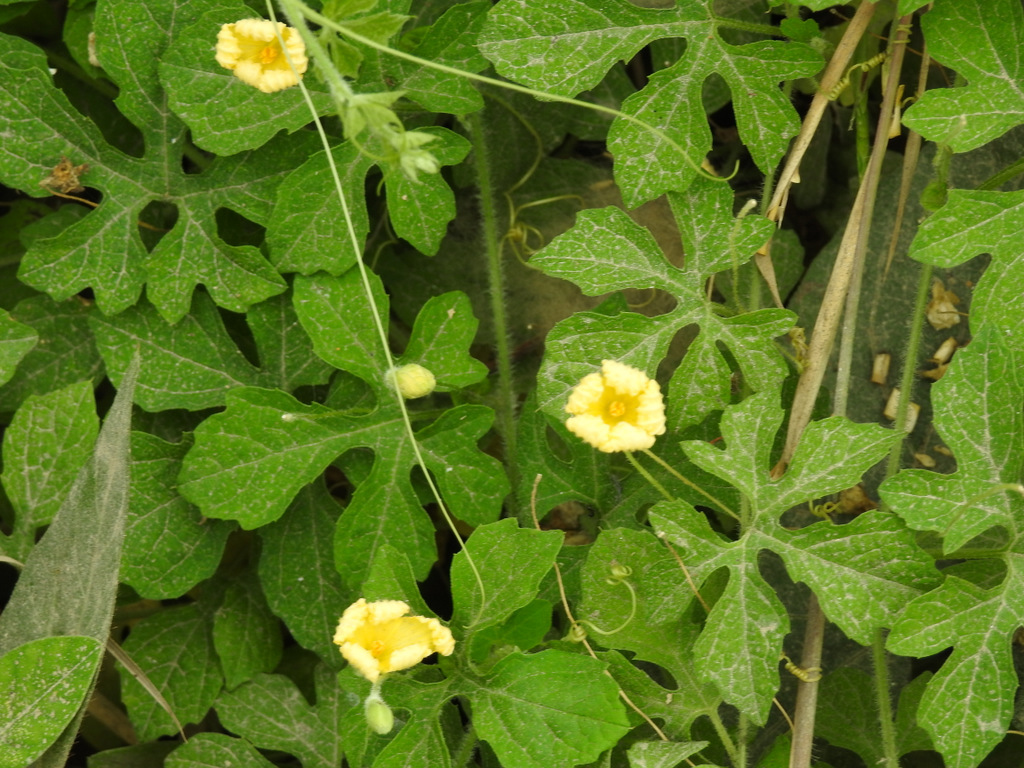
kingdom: Plantae
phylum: Tracheophyta
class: Magnoliopsida
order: Cucurbitales
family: Cucurbitaceae
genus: Momordica
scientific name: Momordica charantia
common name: Balsampear
